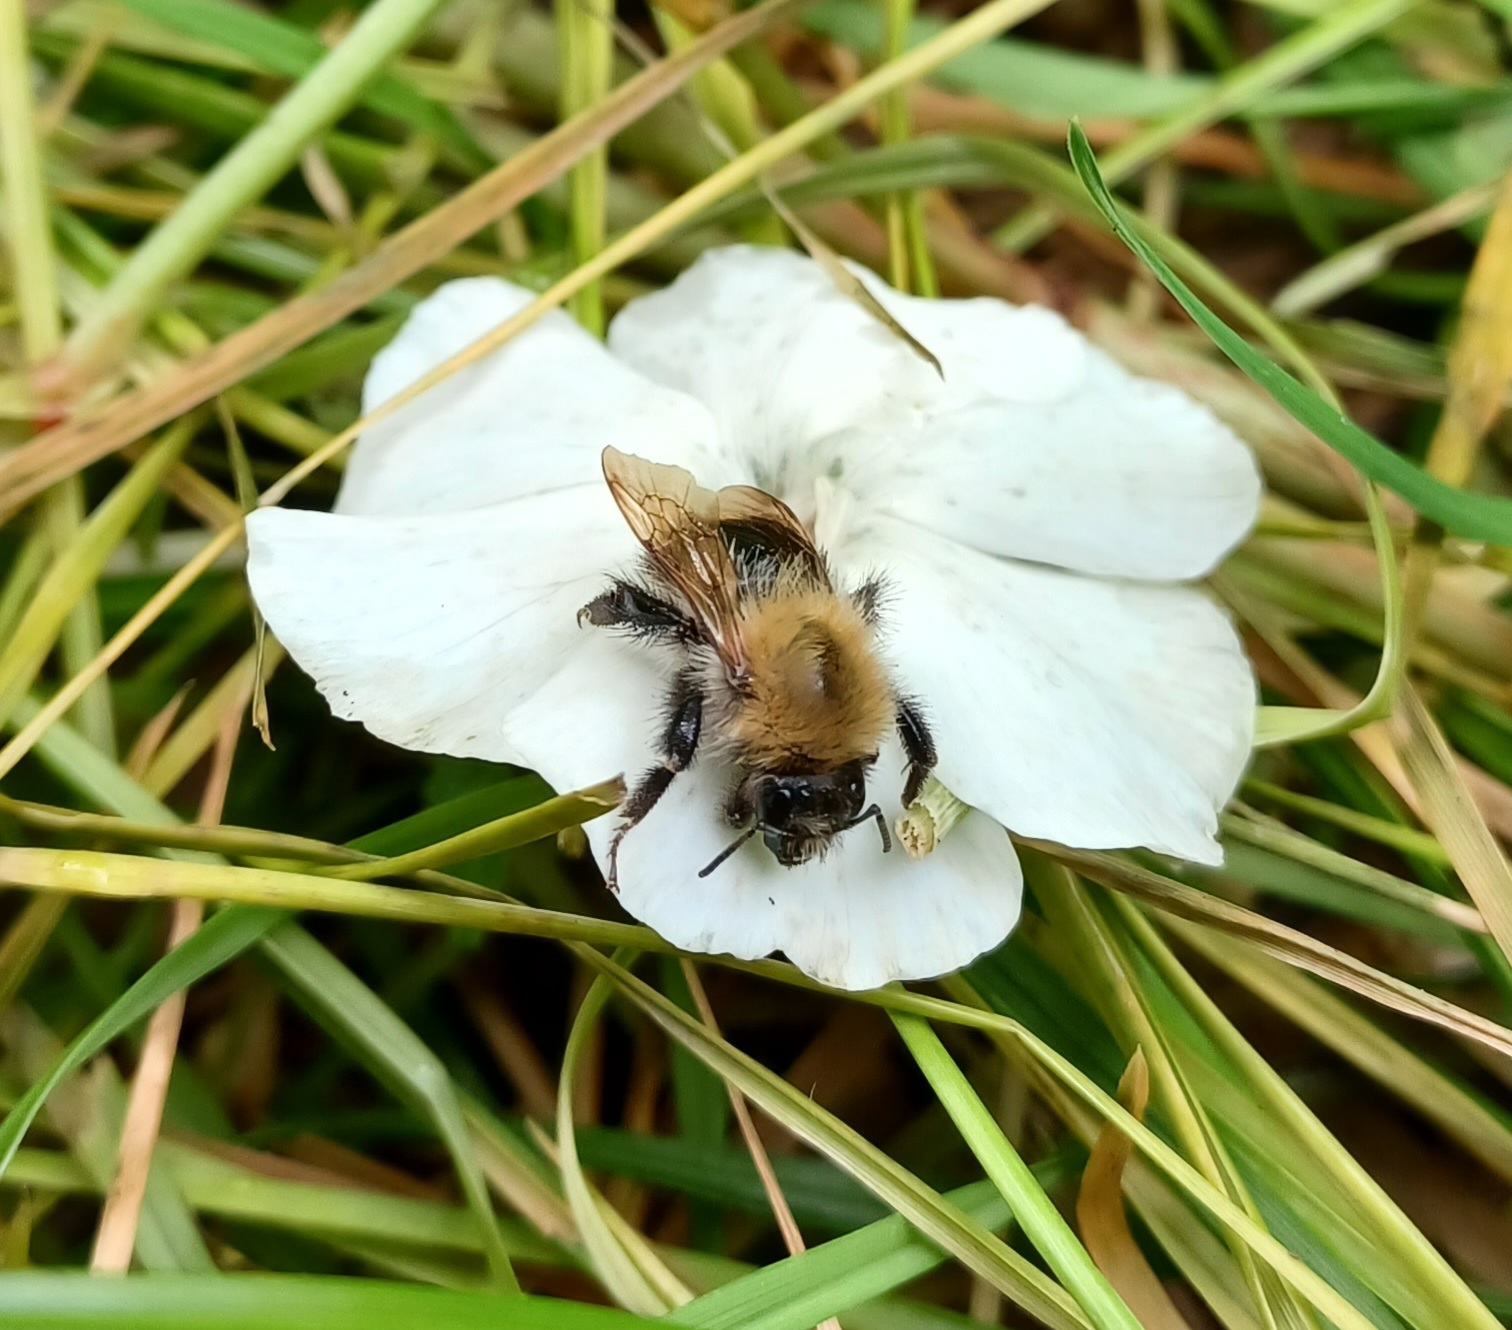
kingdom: Animalia
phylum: Arthropoda
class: Insecta
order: Hymenoptera
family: Apidae
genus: Bombus
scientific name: Bombus pascuorum
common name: Common carder bee
